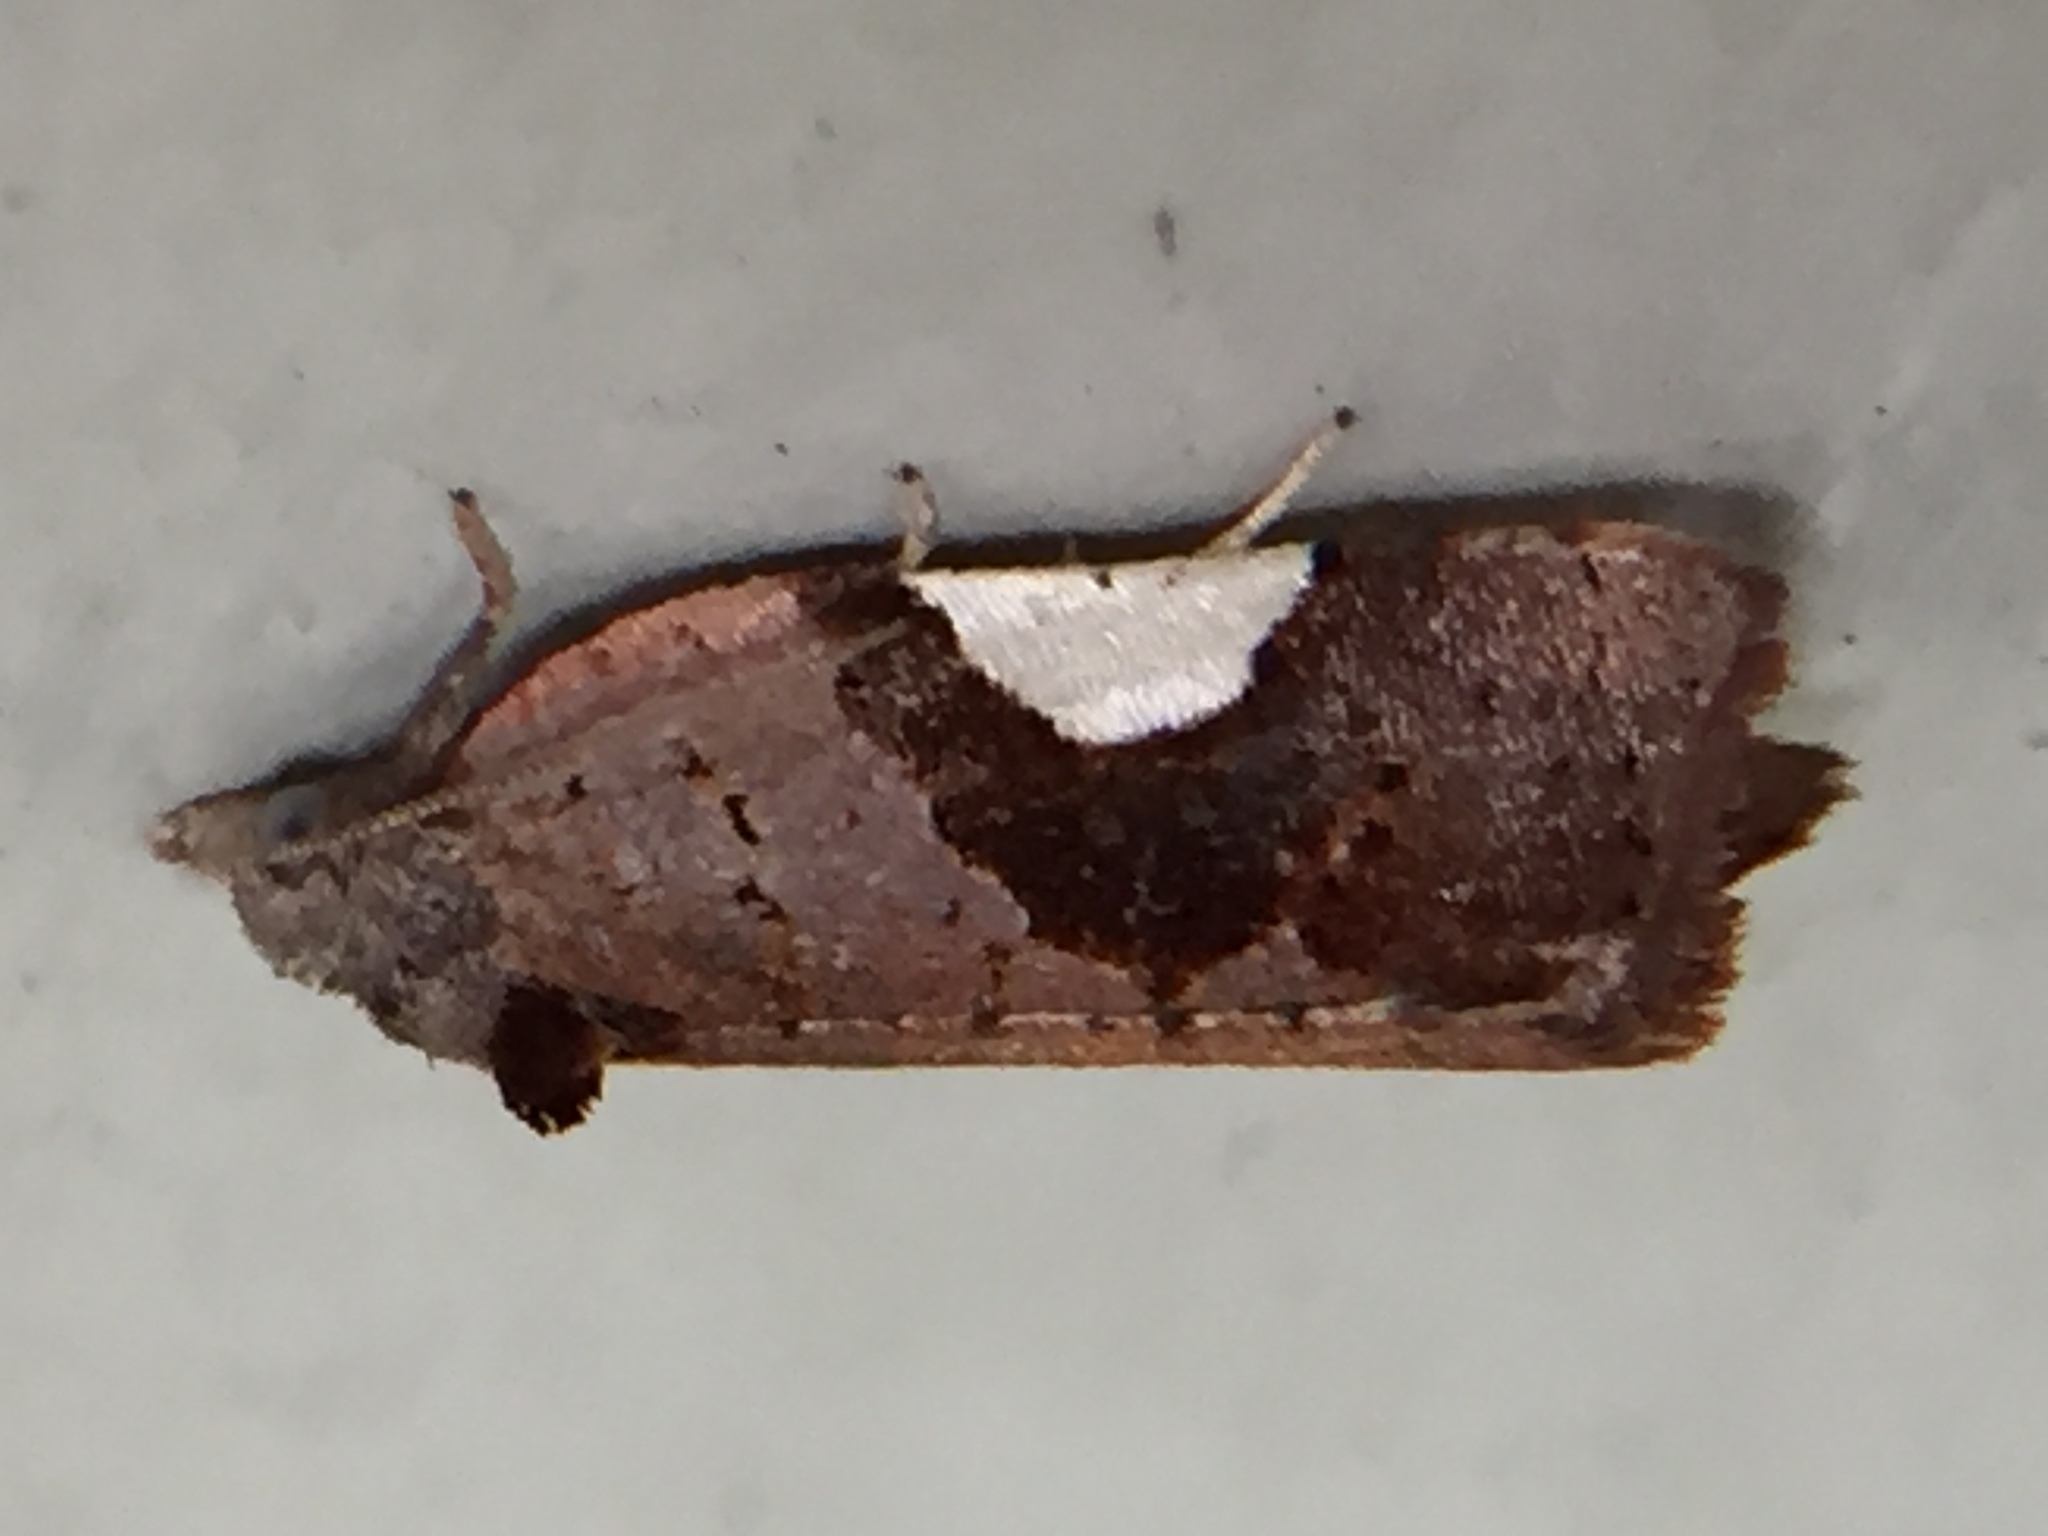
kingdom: Animalia
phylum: Arthropoda
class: Insecta
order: Lepidoptera
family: Tortricidae
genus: Pyrgotis
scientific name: Pyrgotis plagiatana
